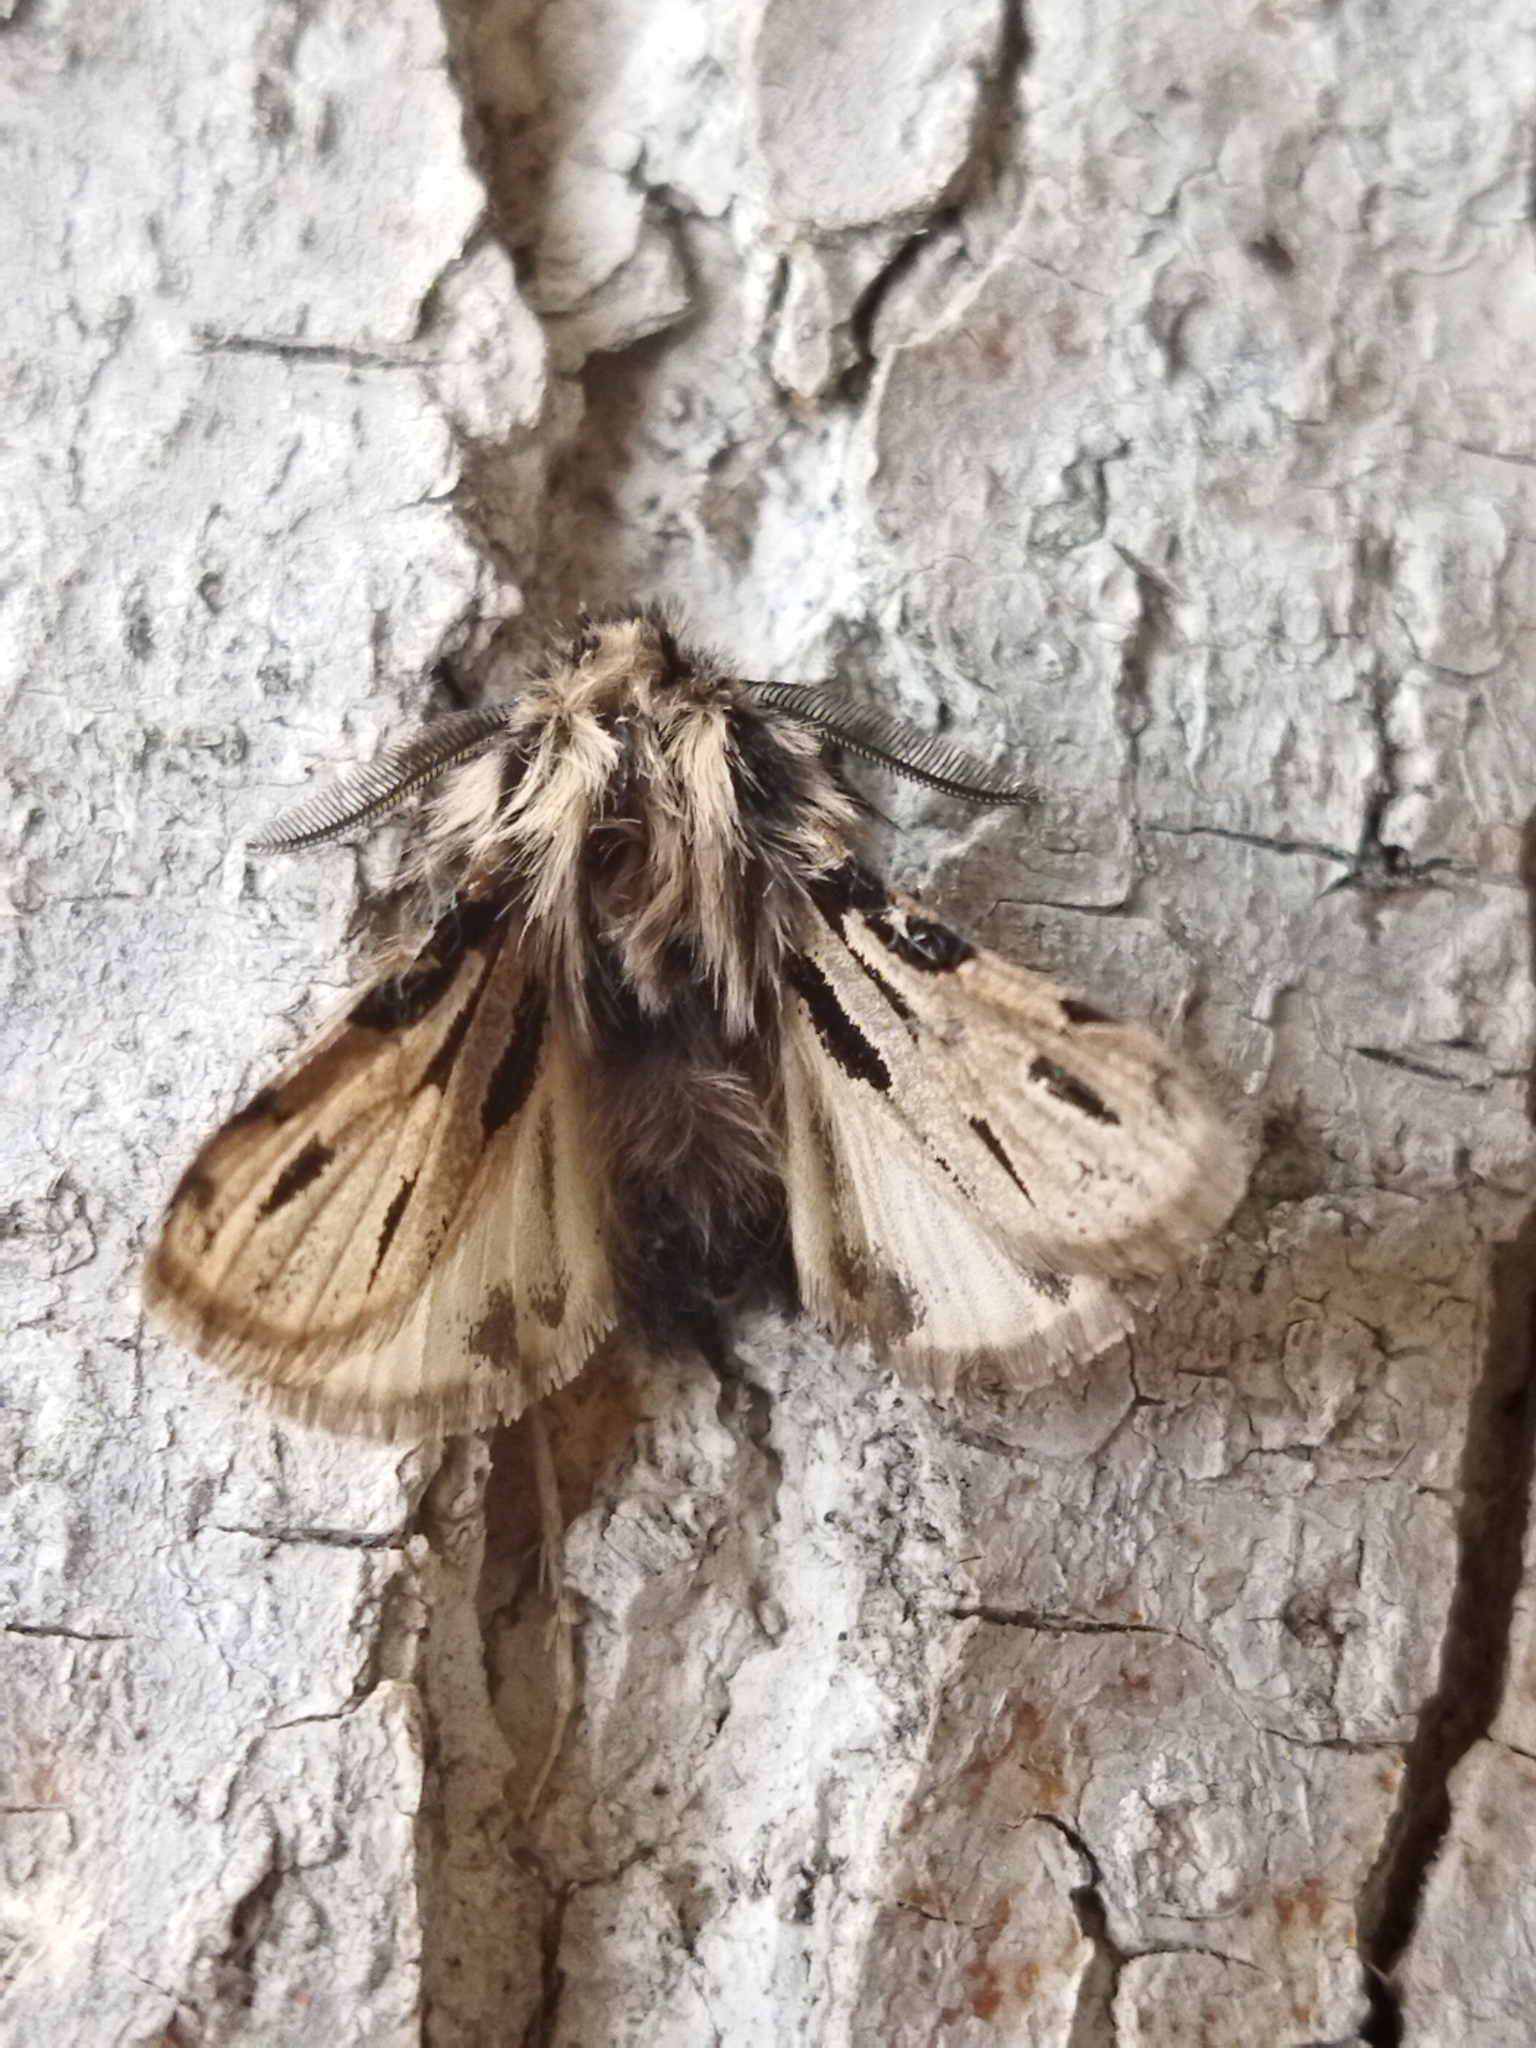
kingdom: Animalia
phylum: Arthropoda
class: Insecta
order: Lepidoptera
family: Erebidae
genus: Ocnogyna
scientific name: Ocnogyna parasita
